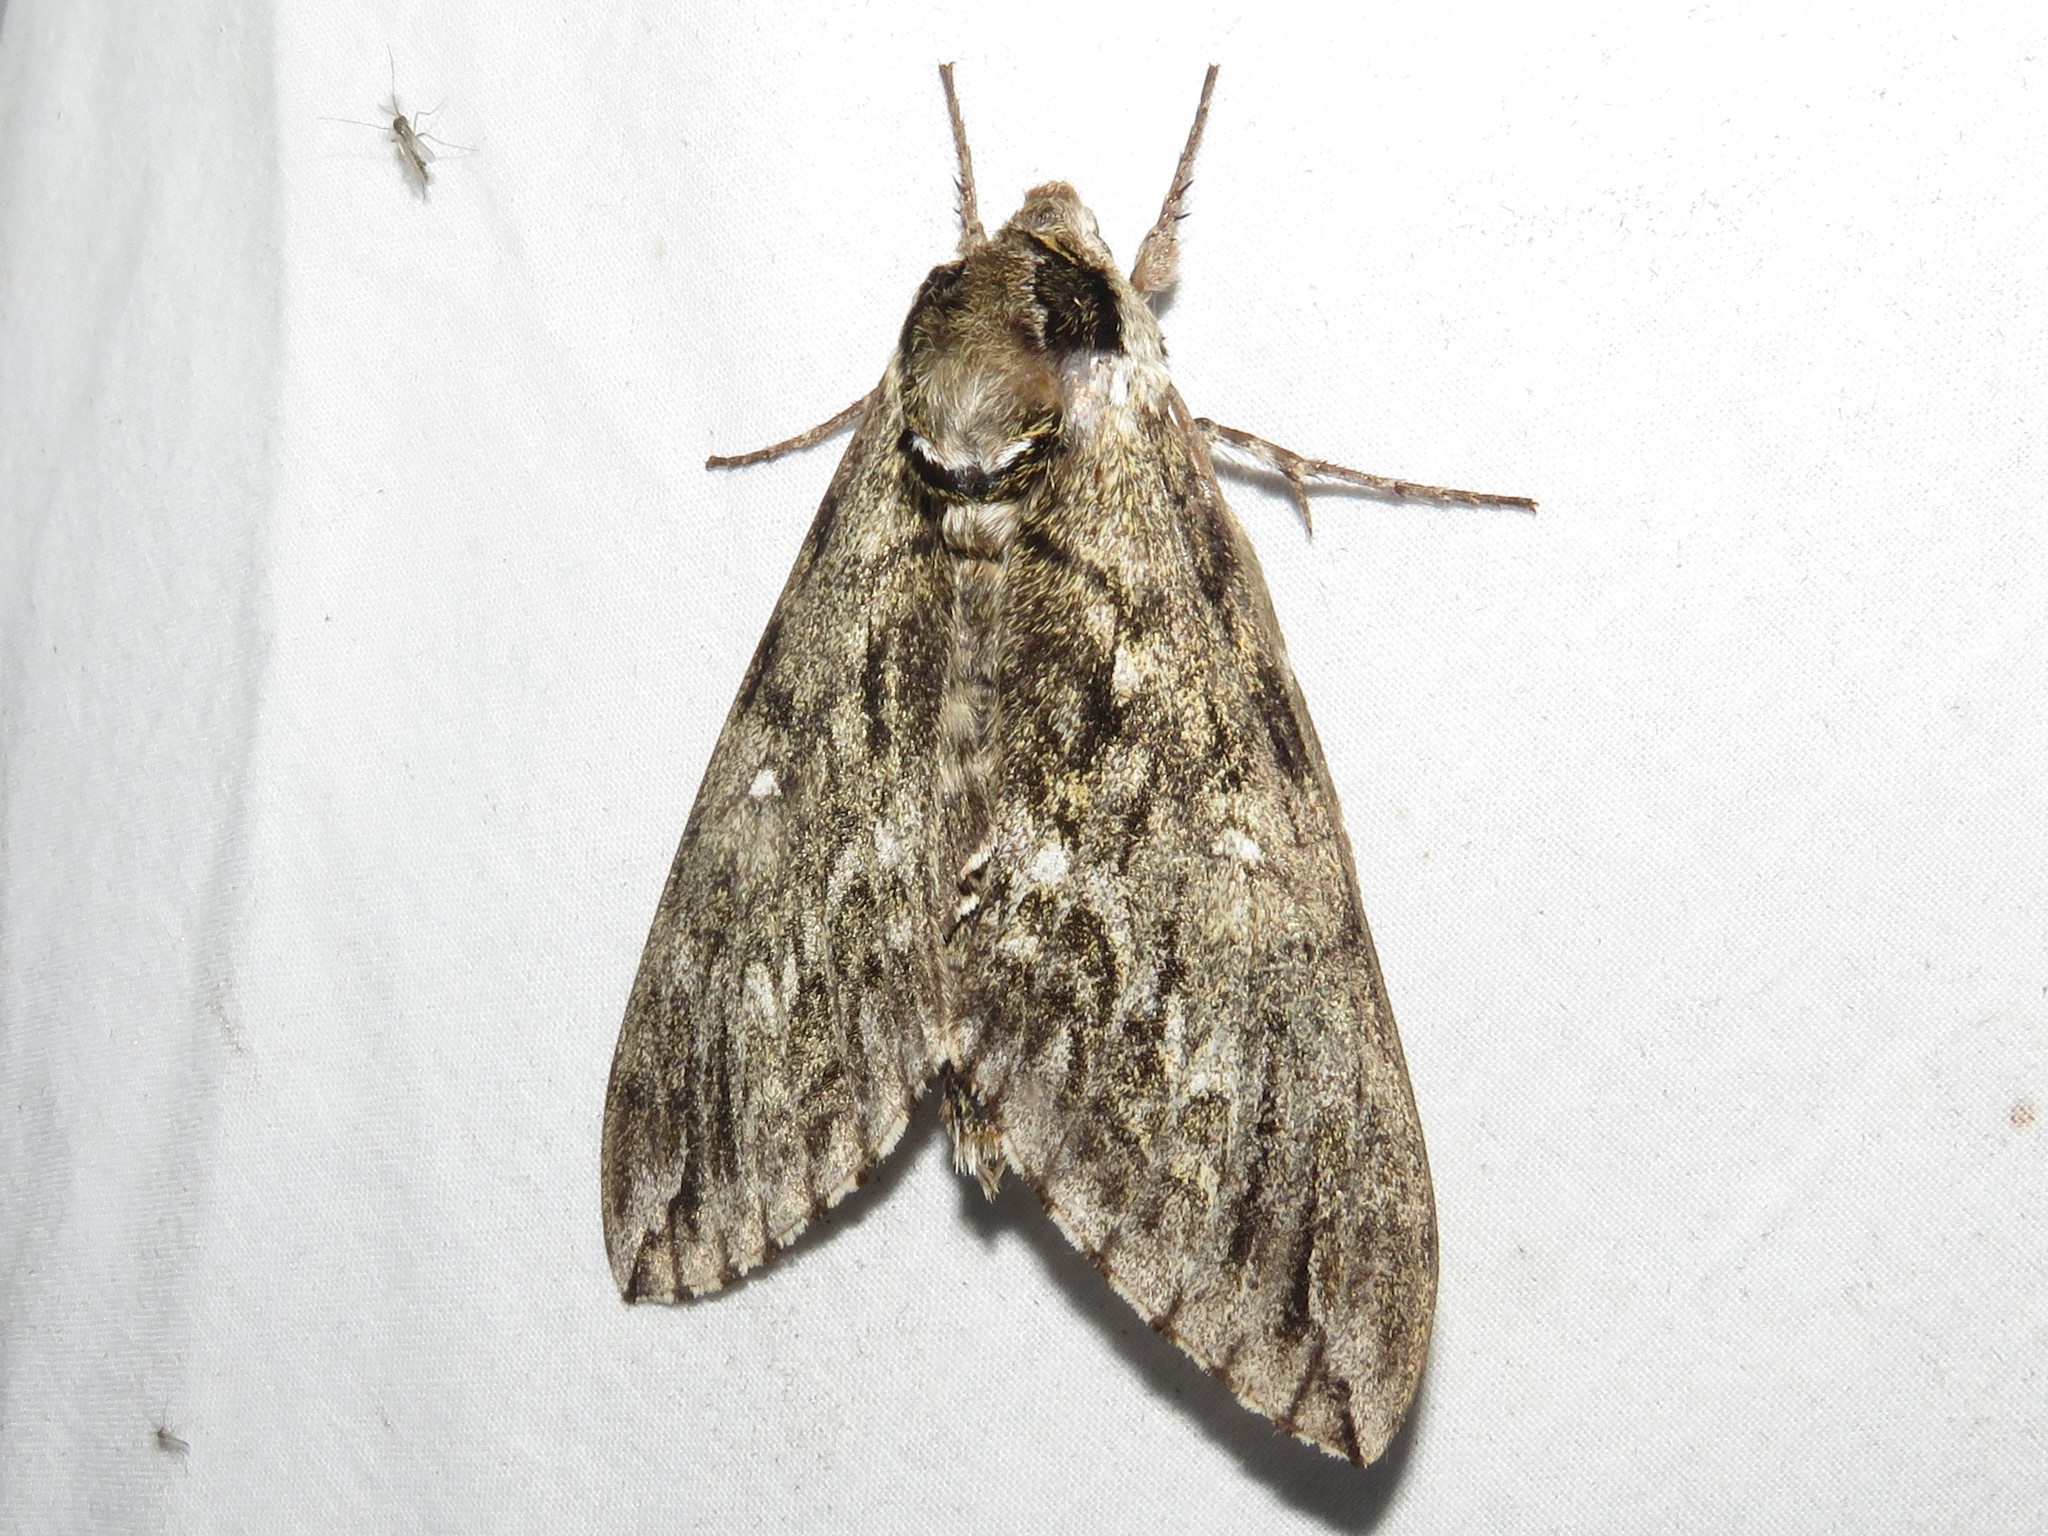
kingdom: Animalia
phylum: Arthropoda
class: Insecta
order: Lepidoptera
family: Sphingidae
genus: Ceratomia
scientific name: Ceratomia undulosa
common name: Waved sphinx
